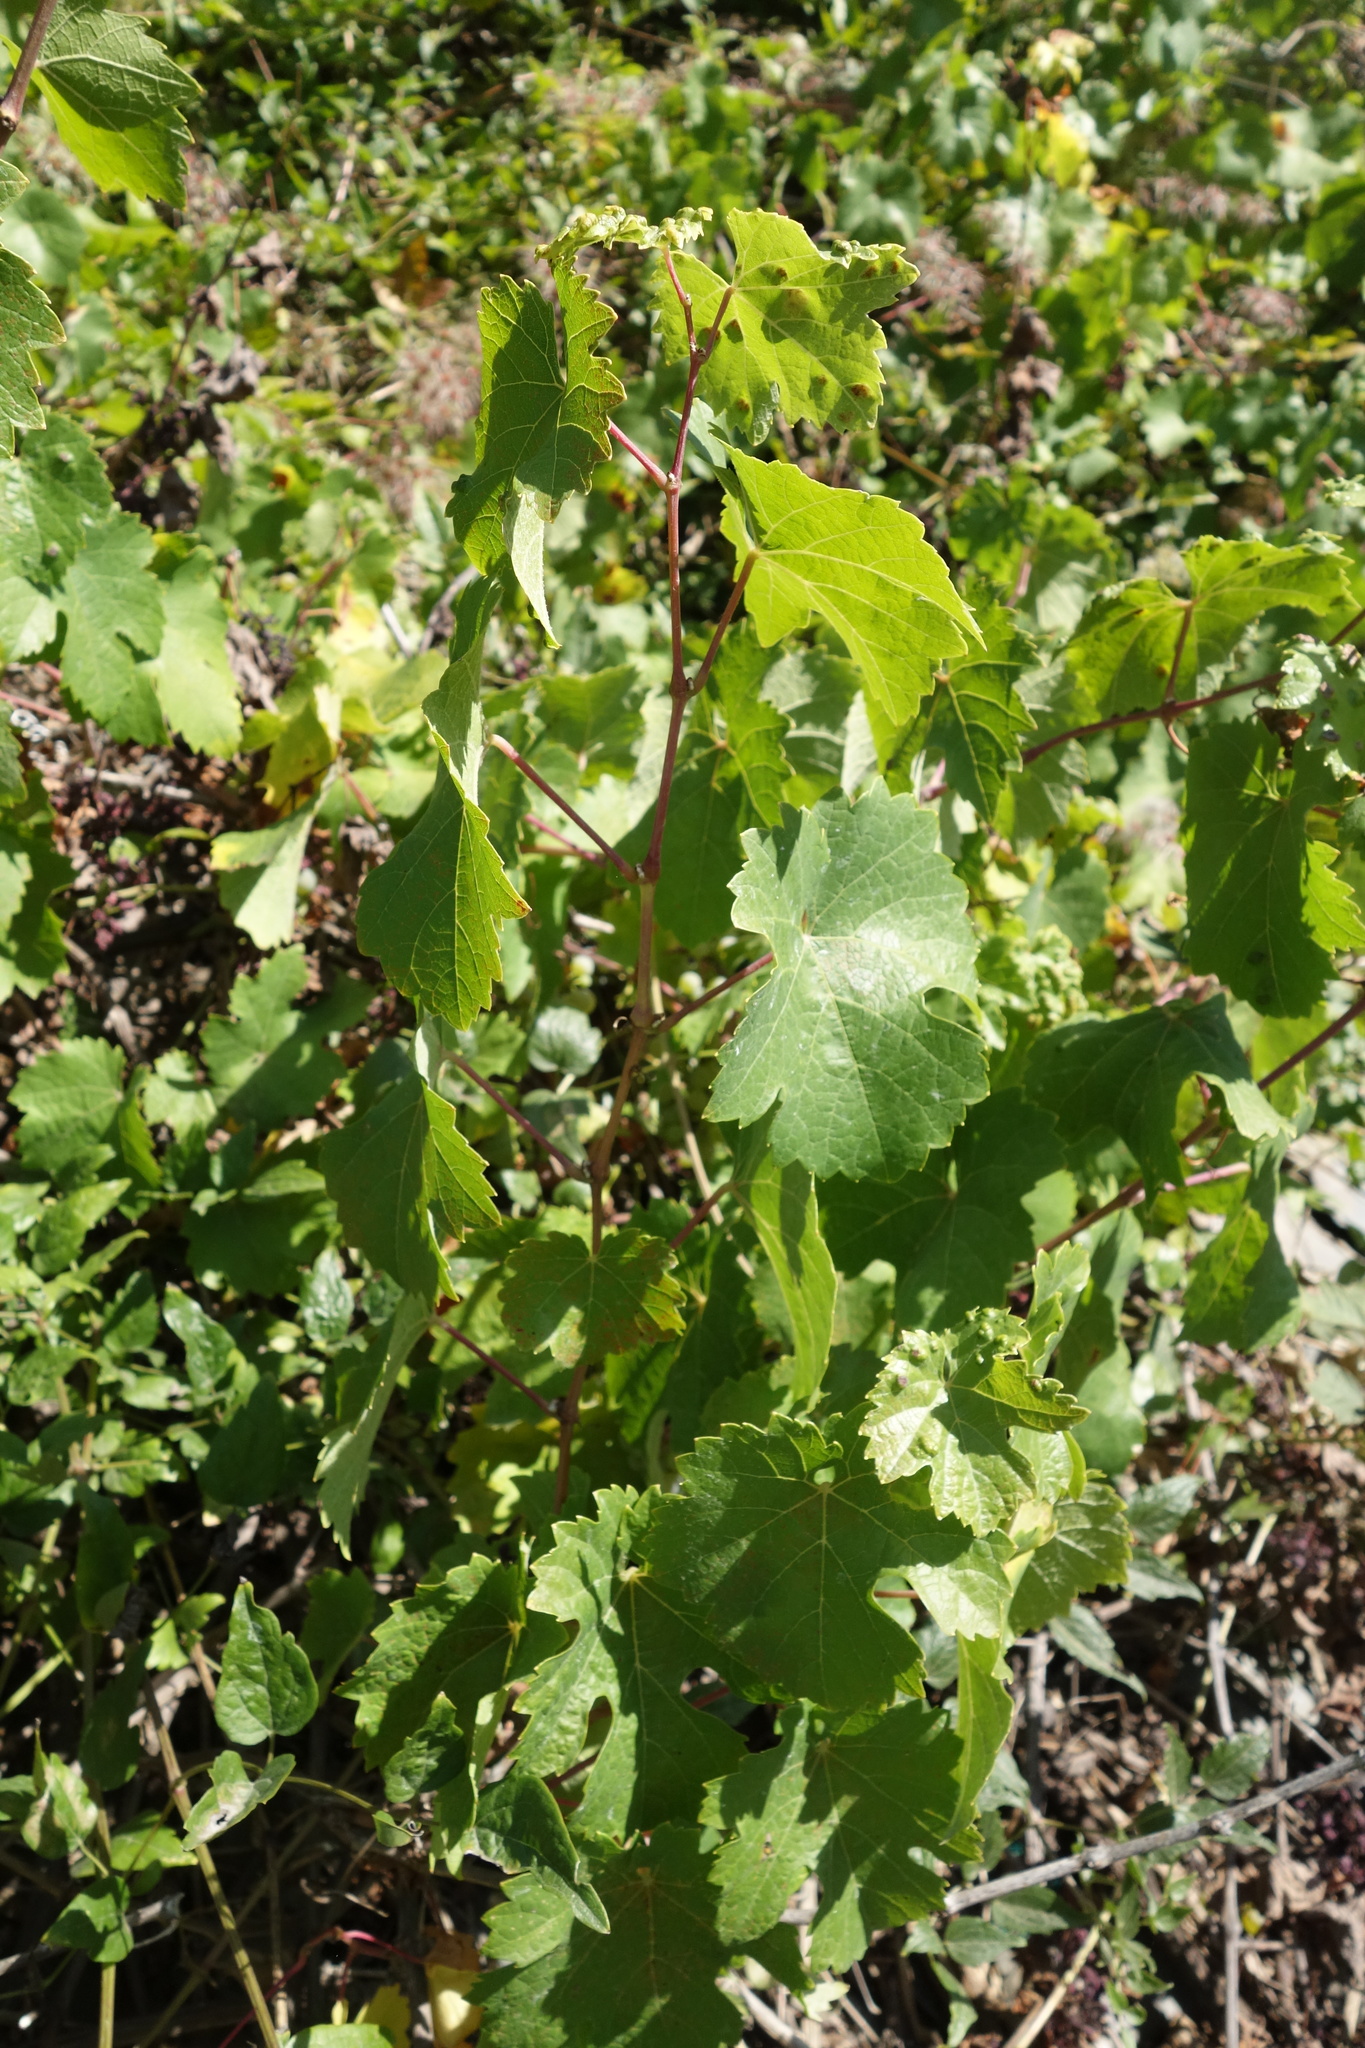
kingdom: Plantae
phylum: Tracheophyta
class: Magnoliopsida
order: Vitales
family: Vitaceae
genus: Vitis
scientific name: Vitis vinifera
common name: Grape-vine
